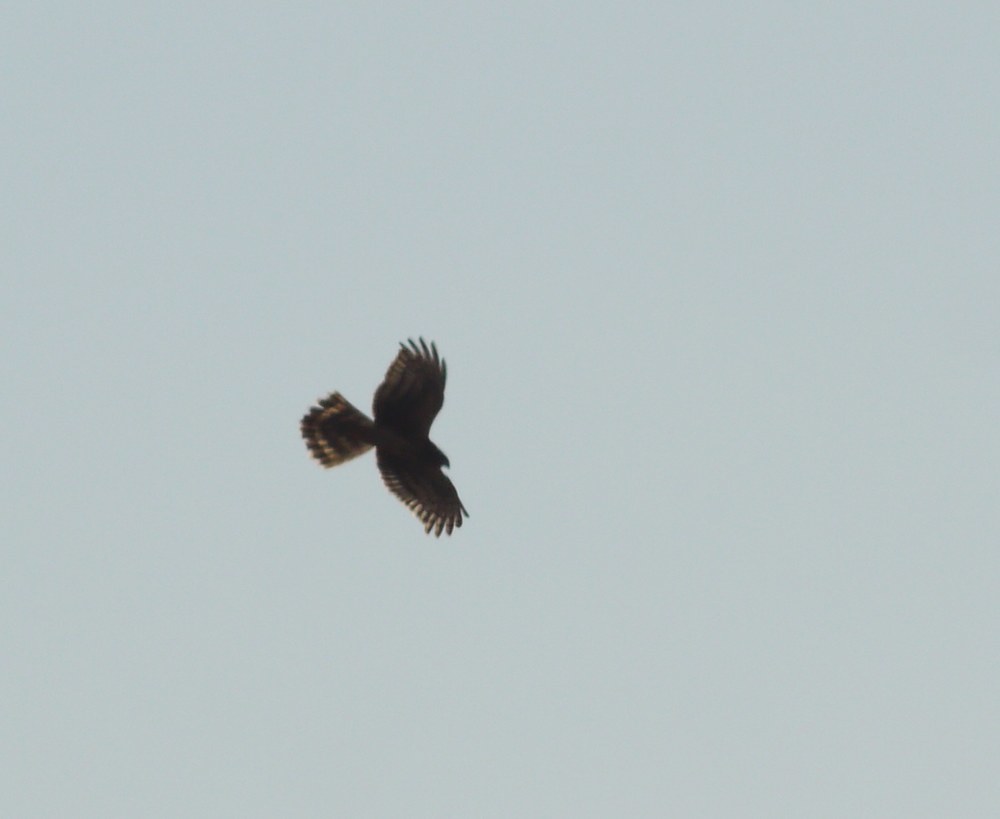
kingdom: Animalia
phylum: Chordata
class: Aves
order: Accipitriformes
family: Accipitridae
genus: Circus
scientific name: Circus cyaneus
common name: Hen harrier
